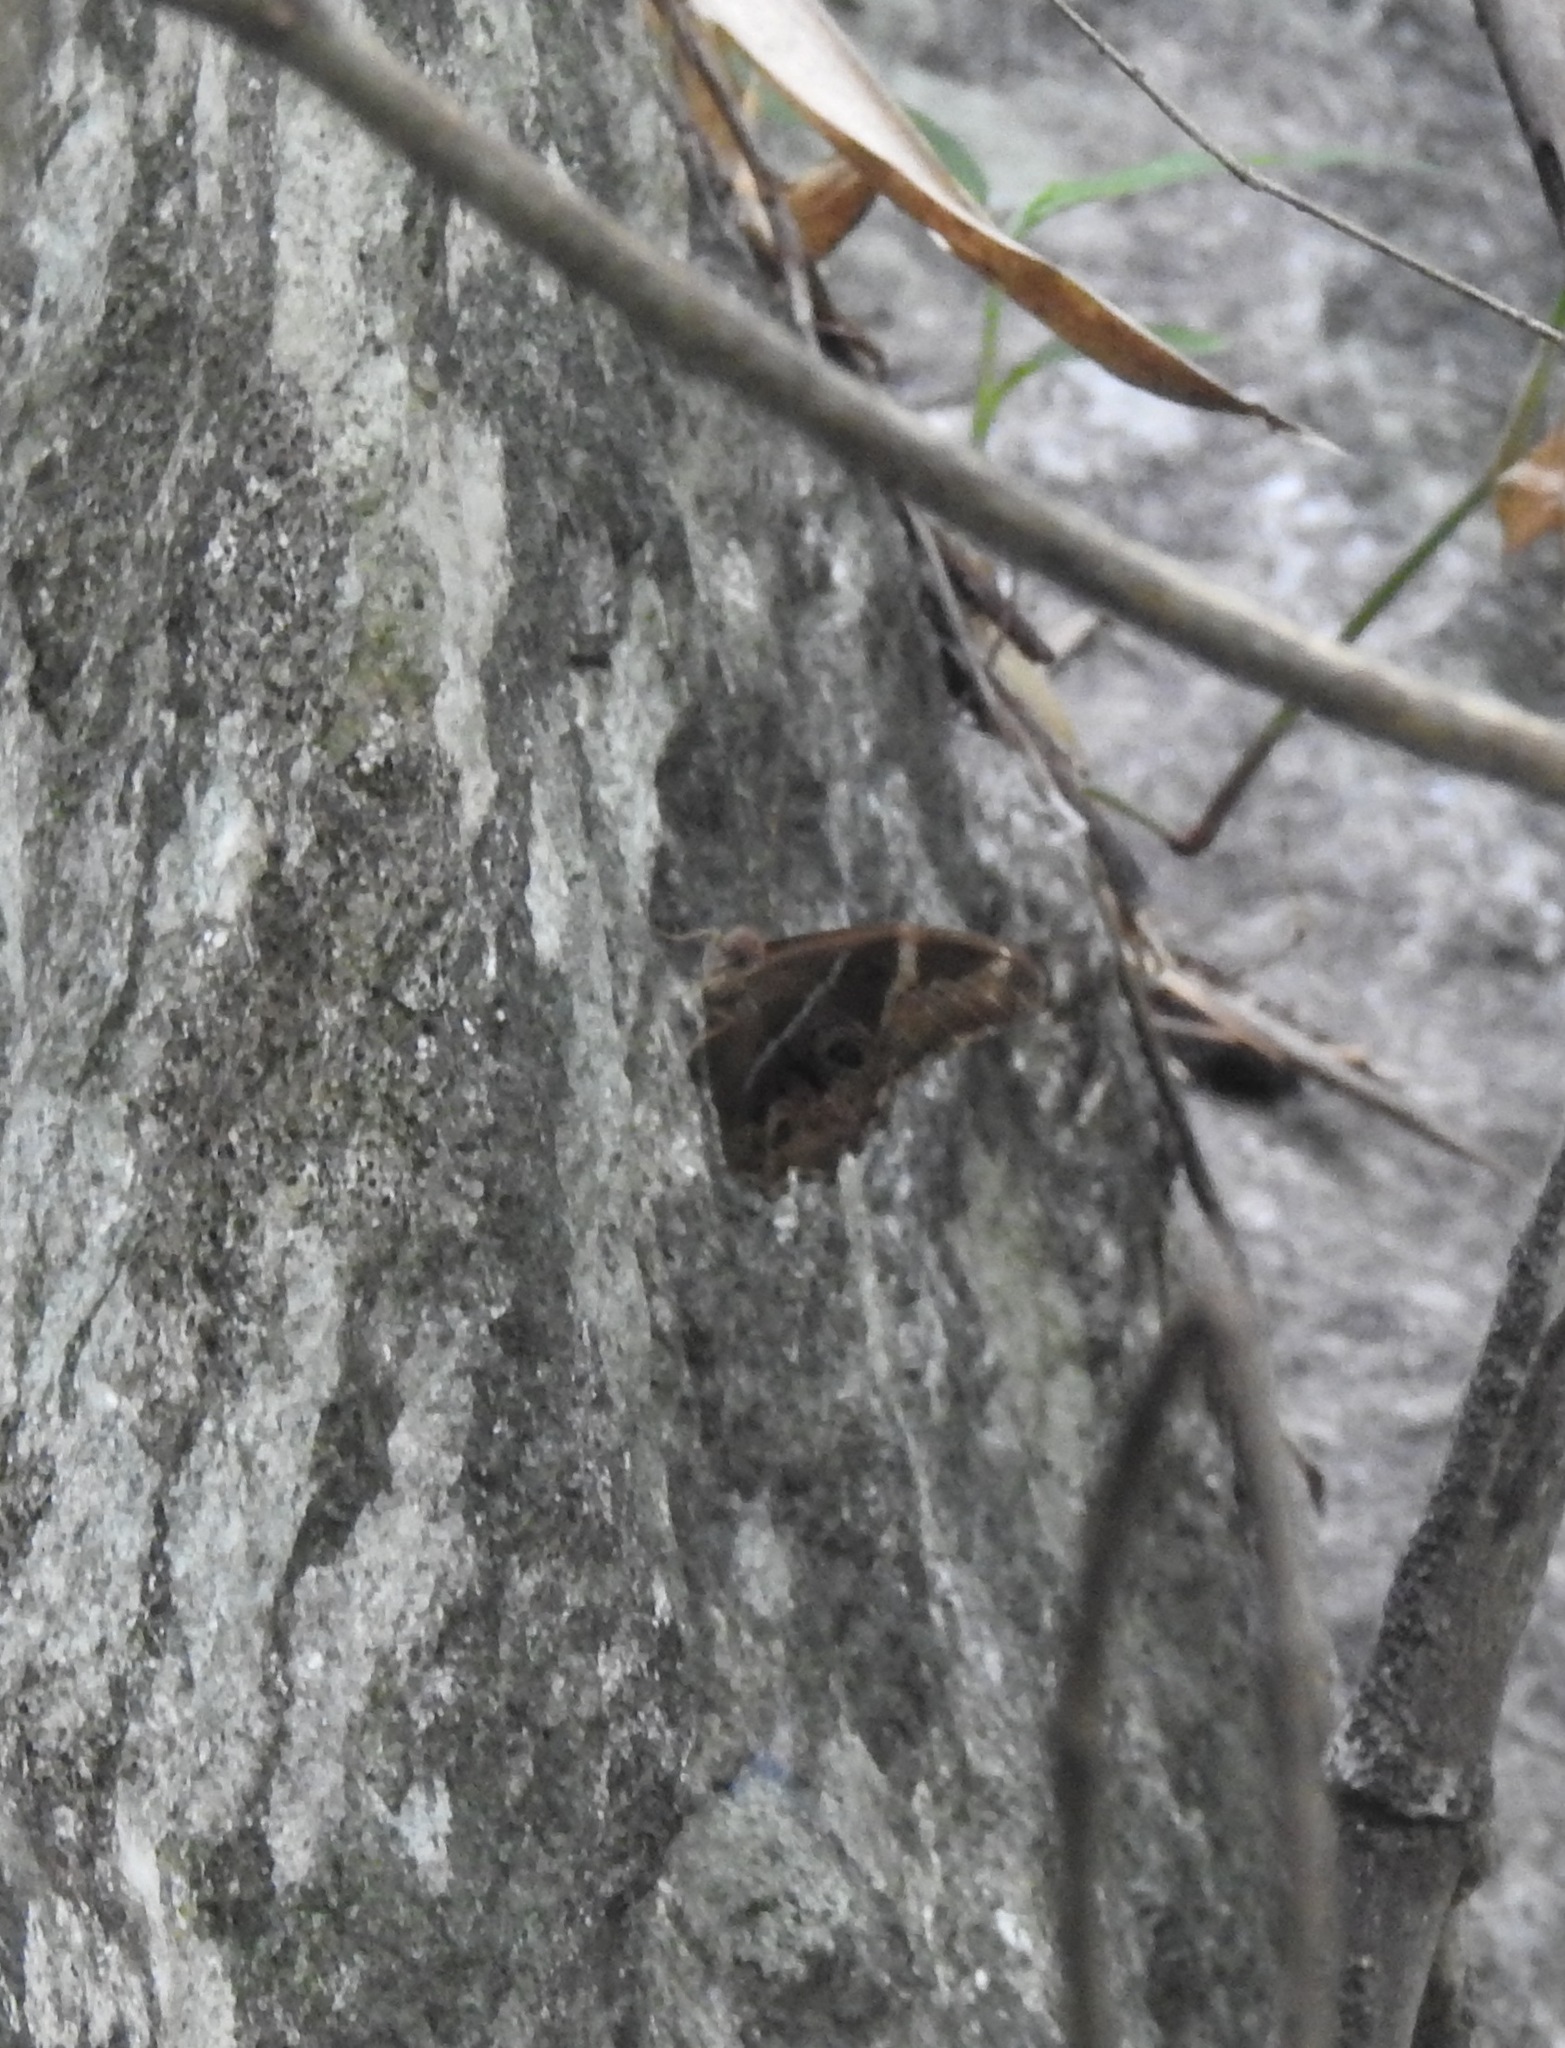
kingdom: Animalia
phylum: Arthropoda
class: Insecta
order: Lepidoptera
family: Nymphalidae
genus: Lethe
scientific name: Lethe europa
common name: Bamboo treebrown
